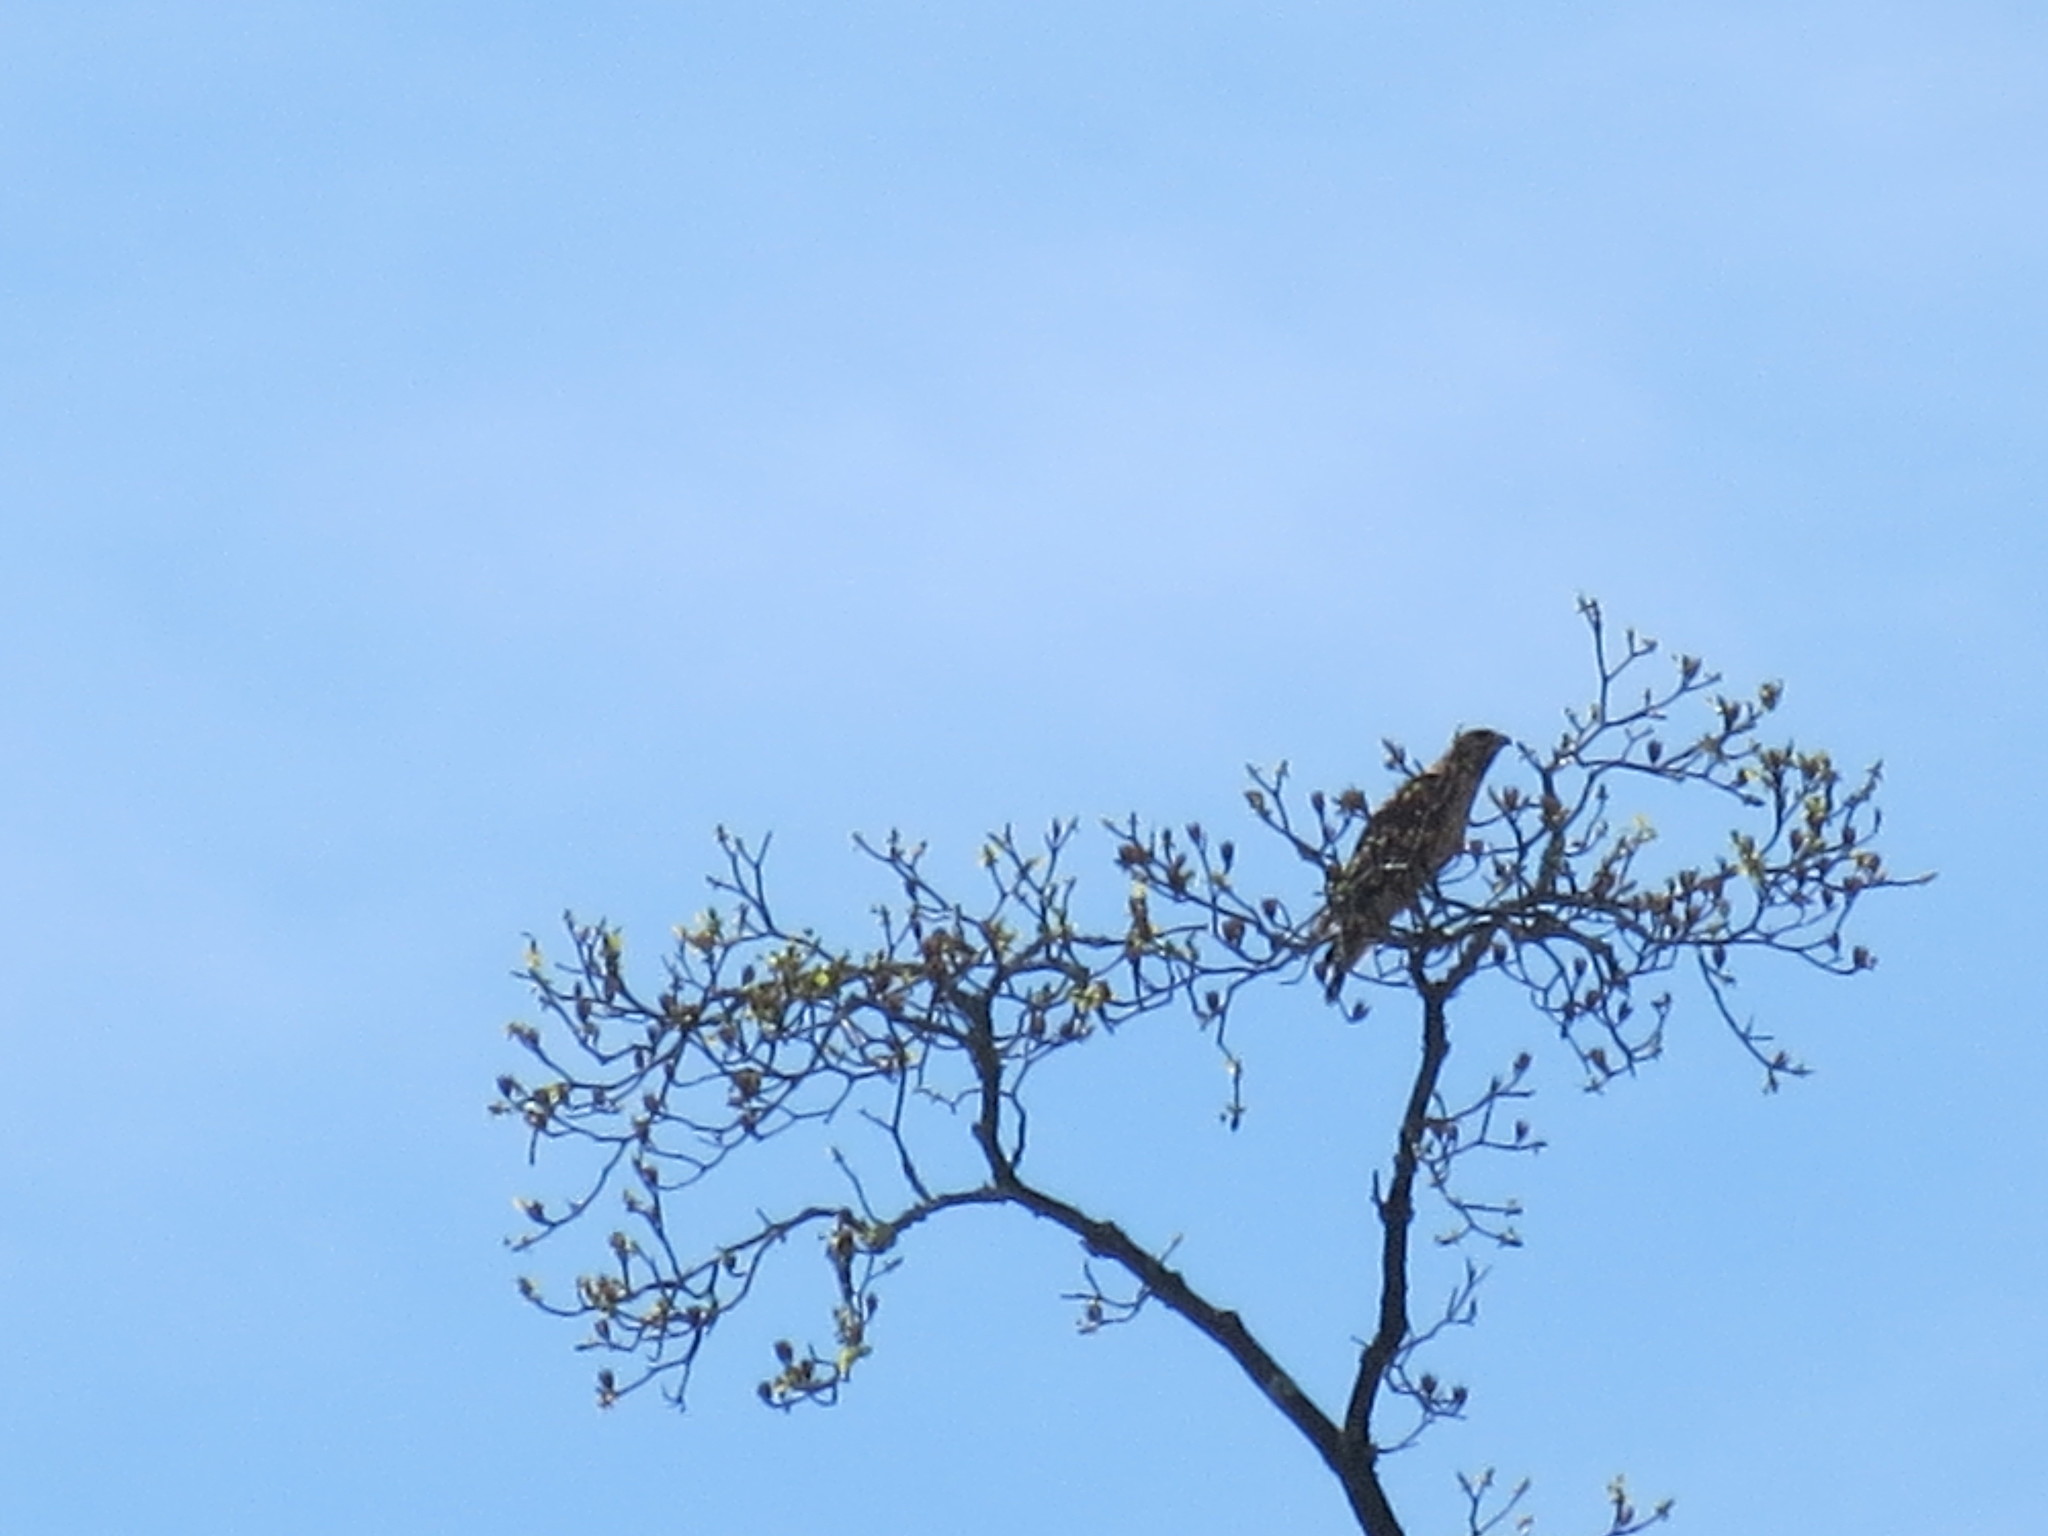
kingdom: Animalia
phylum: Chordata
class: Aves
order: Accipitriformes
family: Accipitridae
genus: Buteo
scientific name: Buteo lineatus
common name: Red-shouldered hawk
